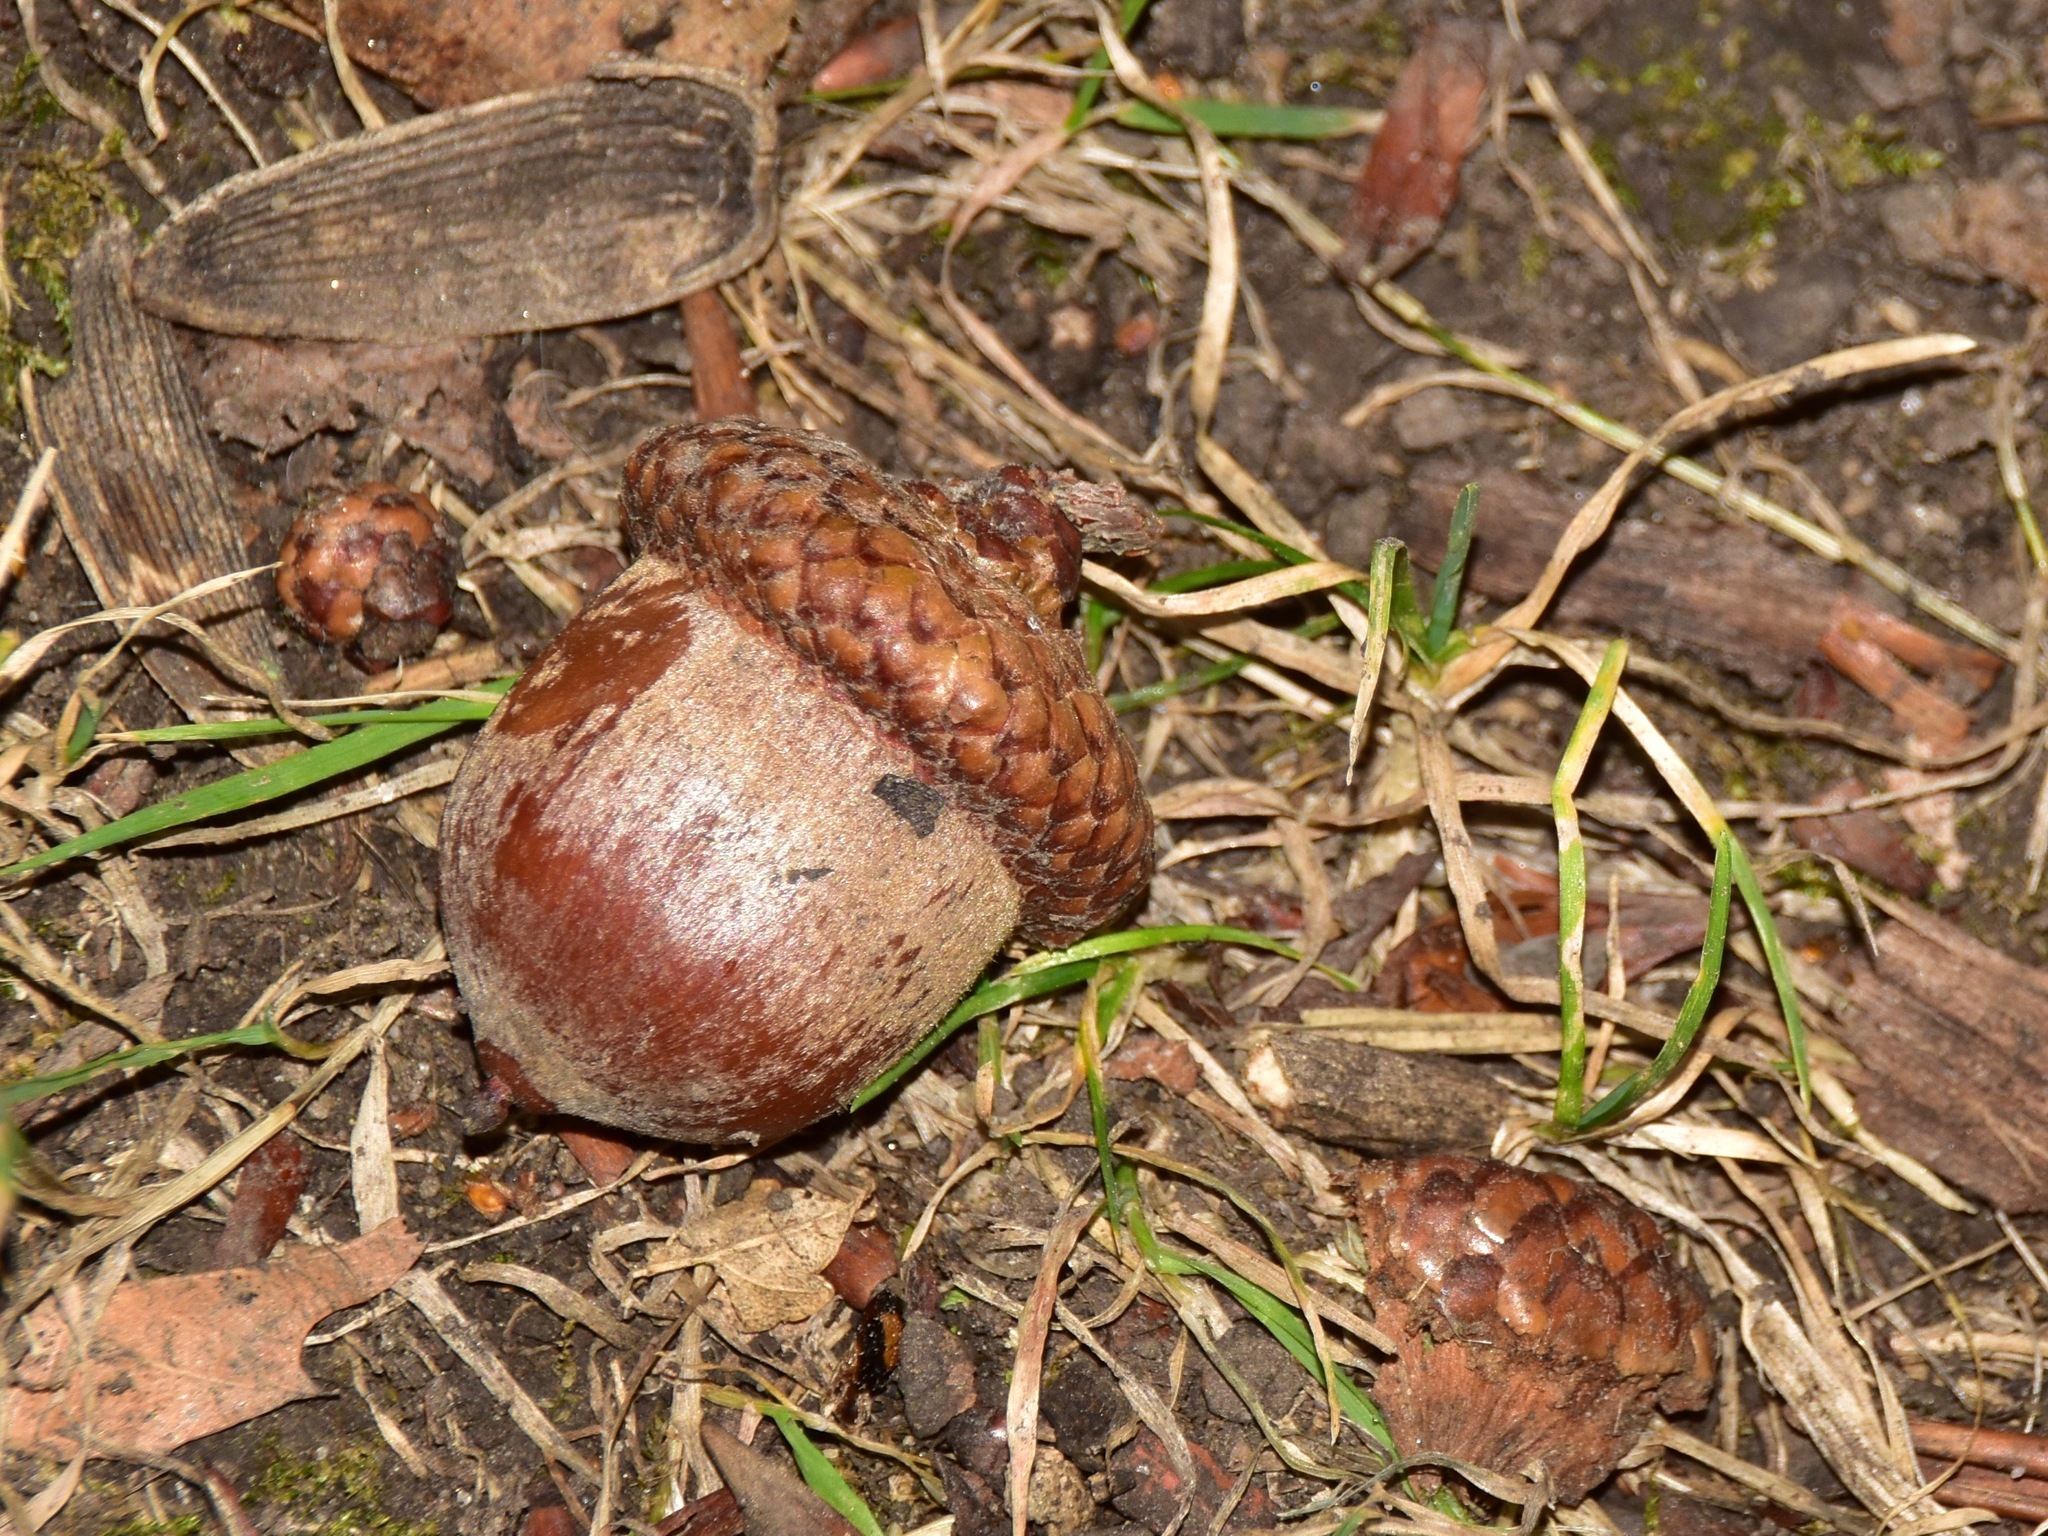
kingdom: Plantae
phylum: Tracheophyta
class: Magnoliopsida
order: Fagales
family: Fagaceae
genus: Quercus
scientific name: Quercus rubra
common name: Red oak
